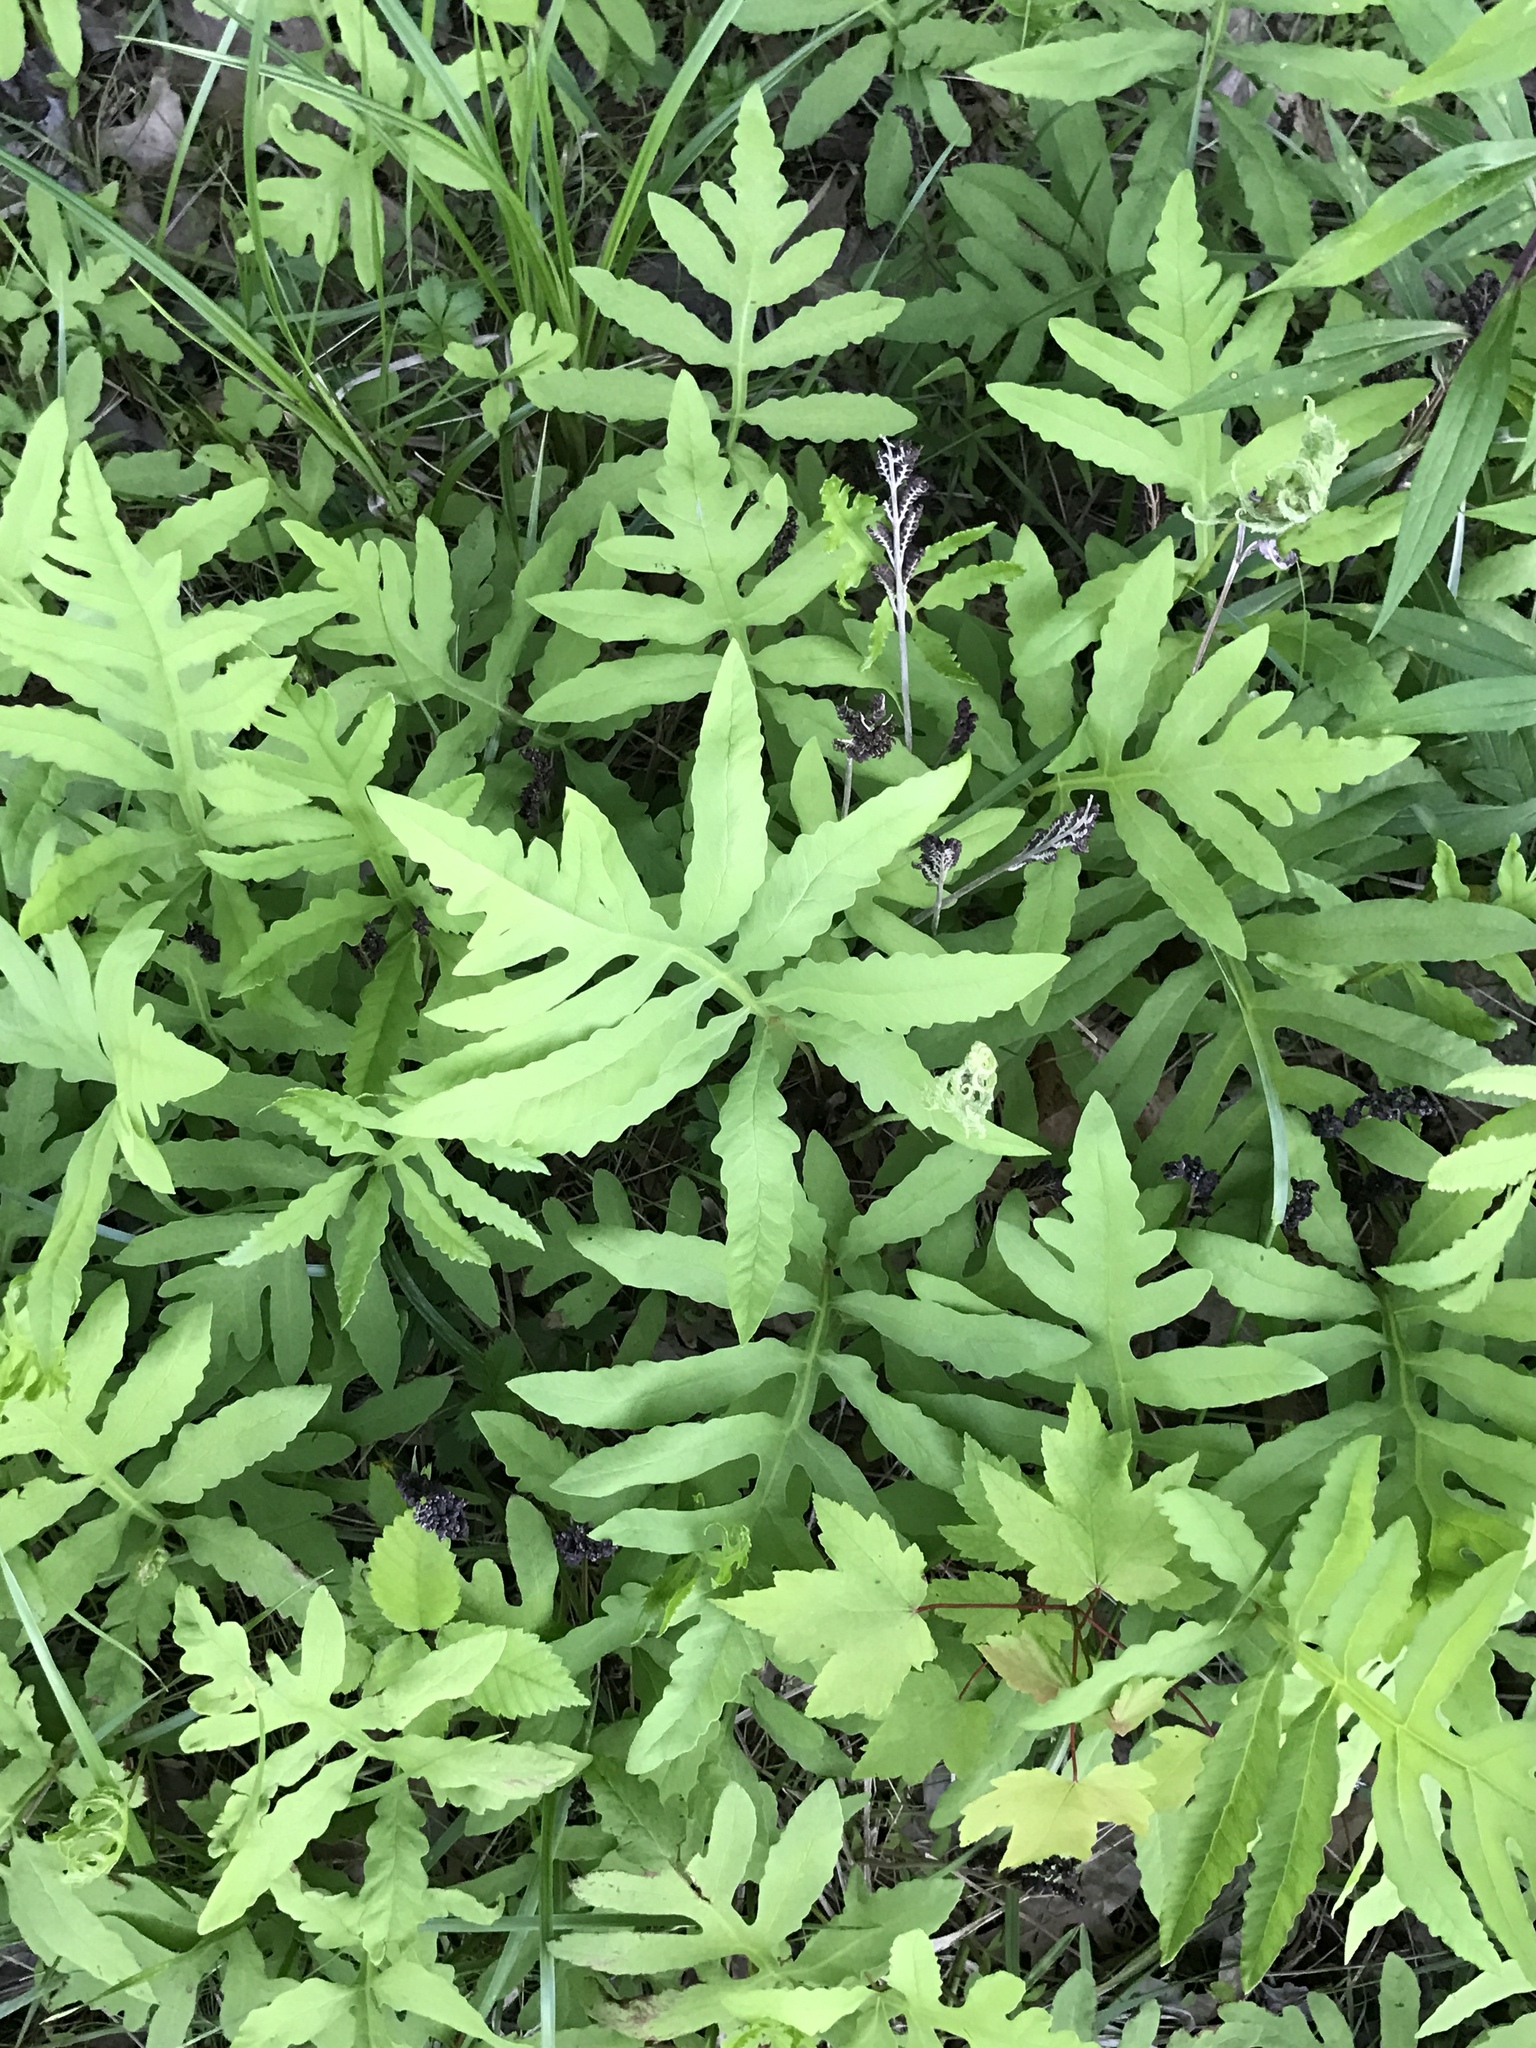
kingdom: Plantae
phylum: Tracheophyta
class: Polypodiopsida
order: Polypodiales
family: Onocleaceae
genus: Onoclea
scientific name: Onoclea sensibilis
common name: Sensitive fern
